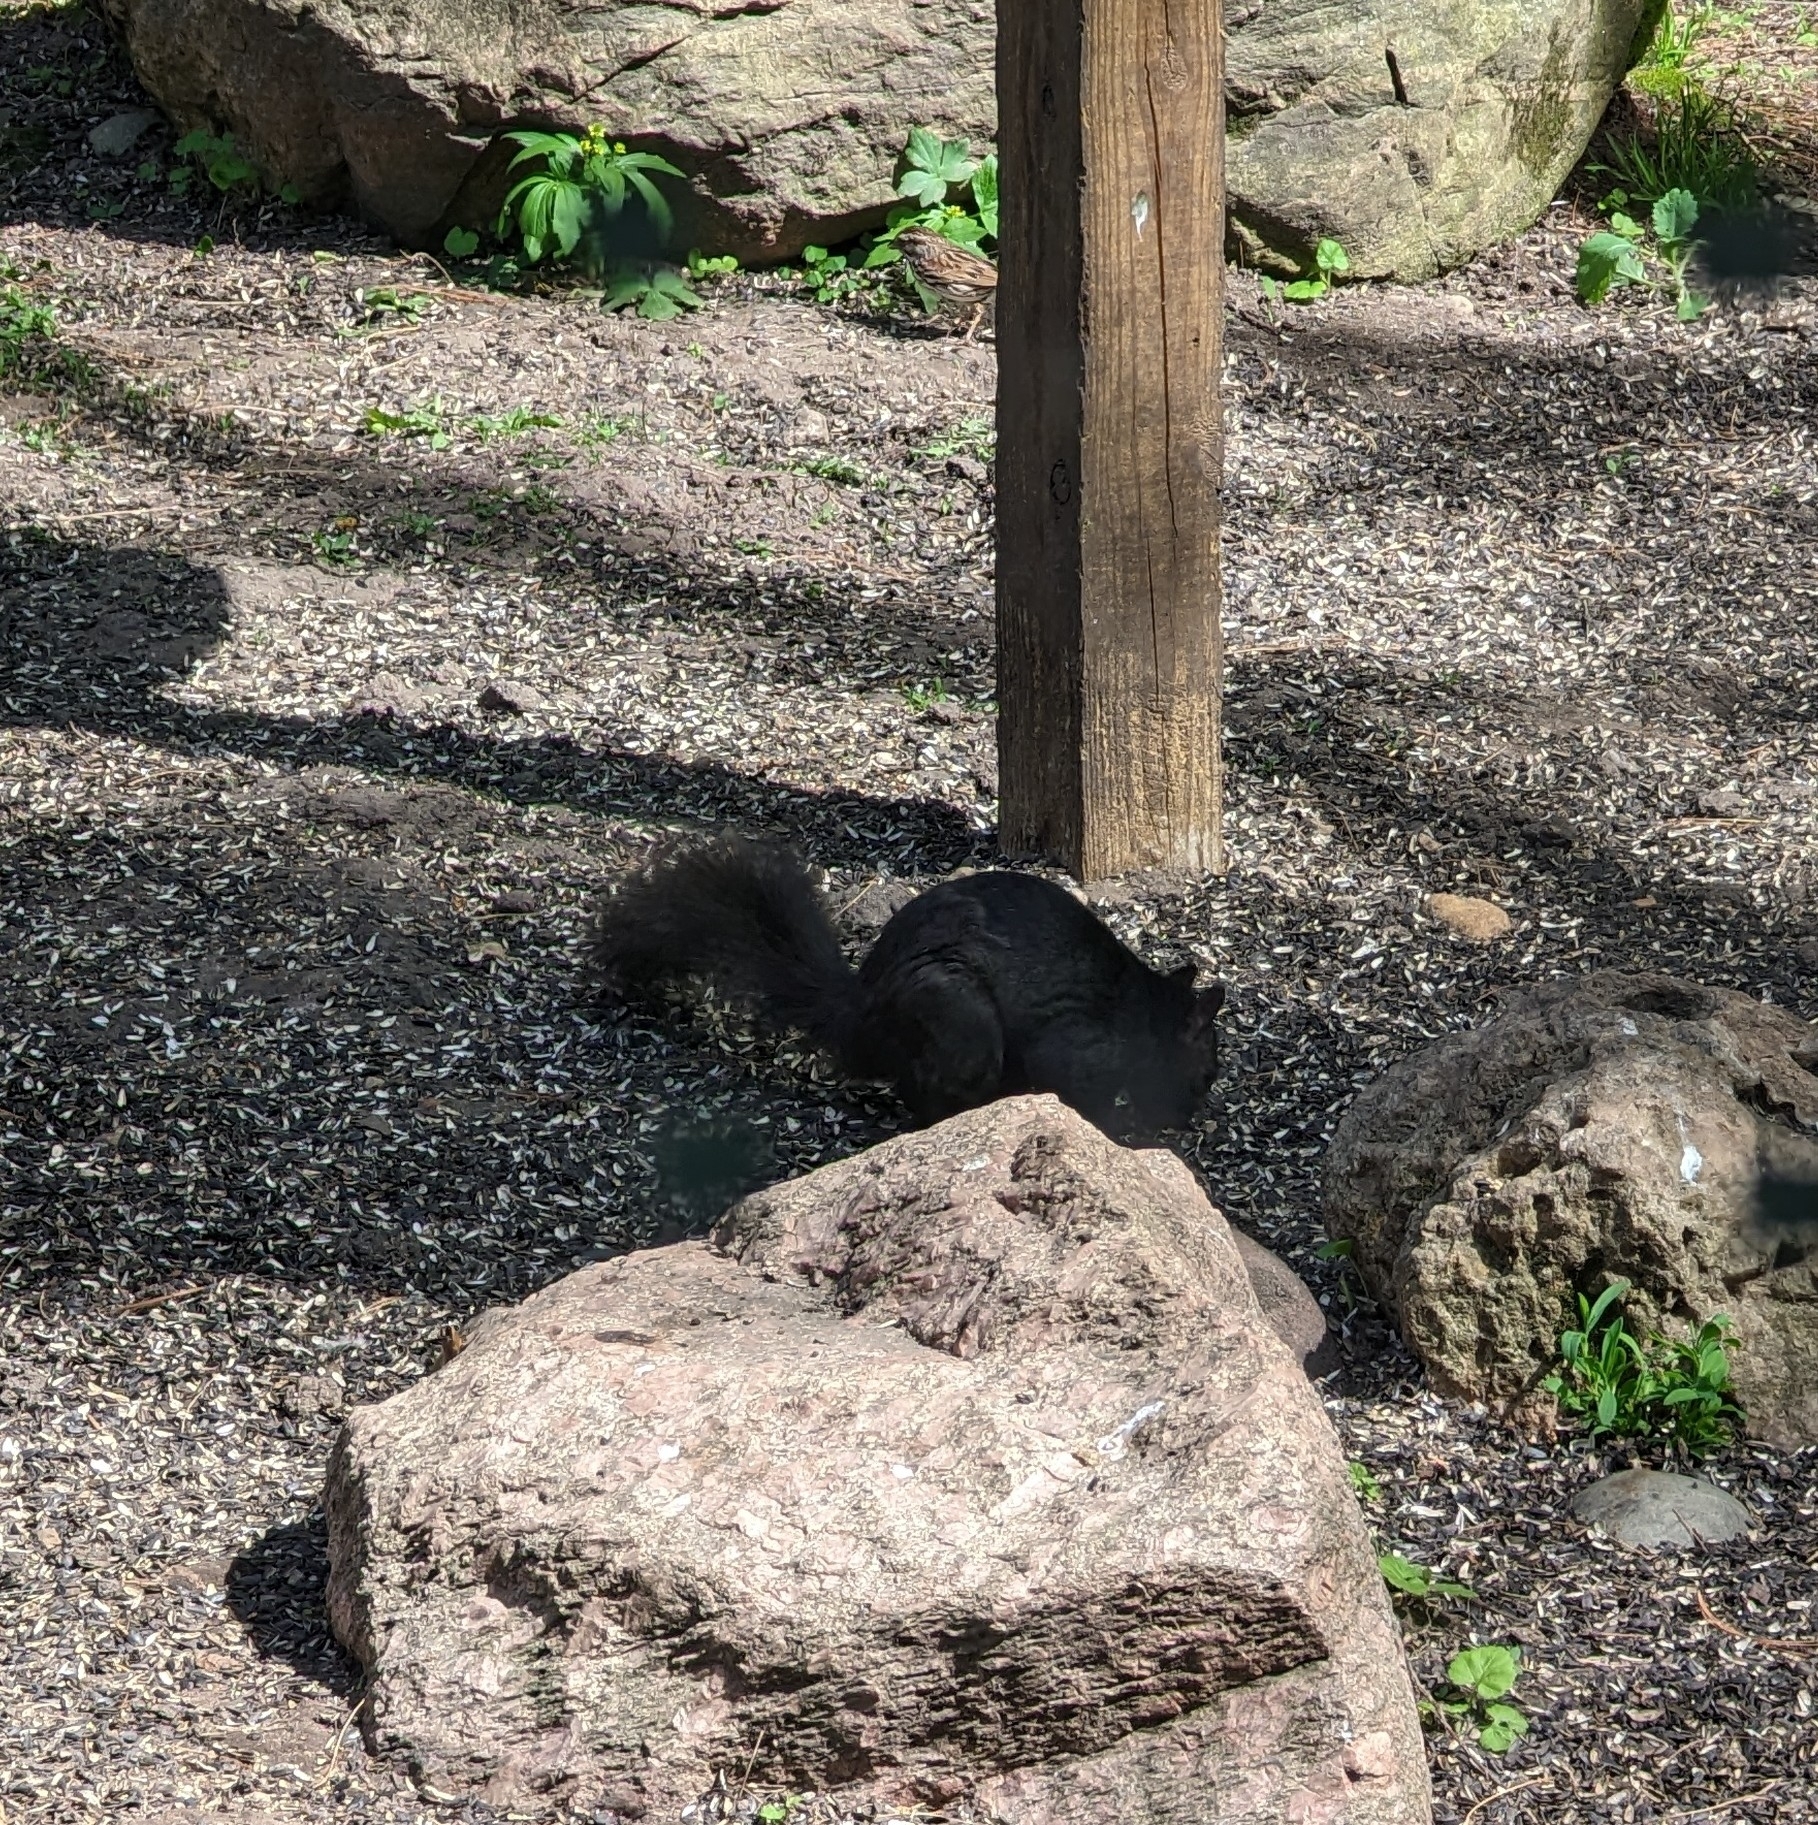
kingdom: Animalia
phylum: Chordata
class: Mammalia
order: Rodentia
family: Sciuridae
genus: Sciurus
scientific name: Sciurus carolinensis
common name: Eastern gray squirrel
